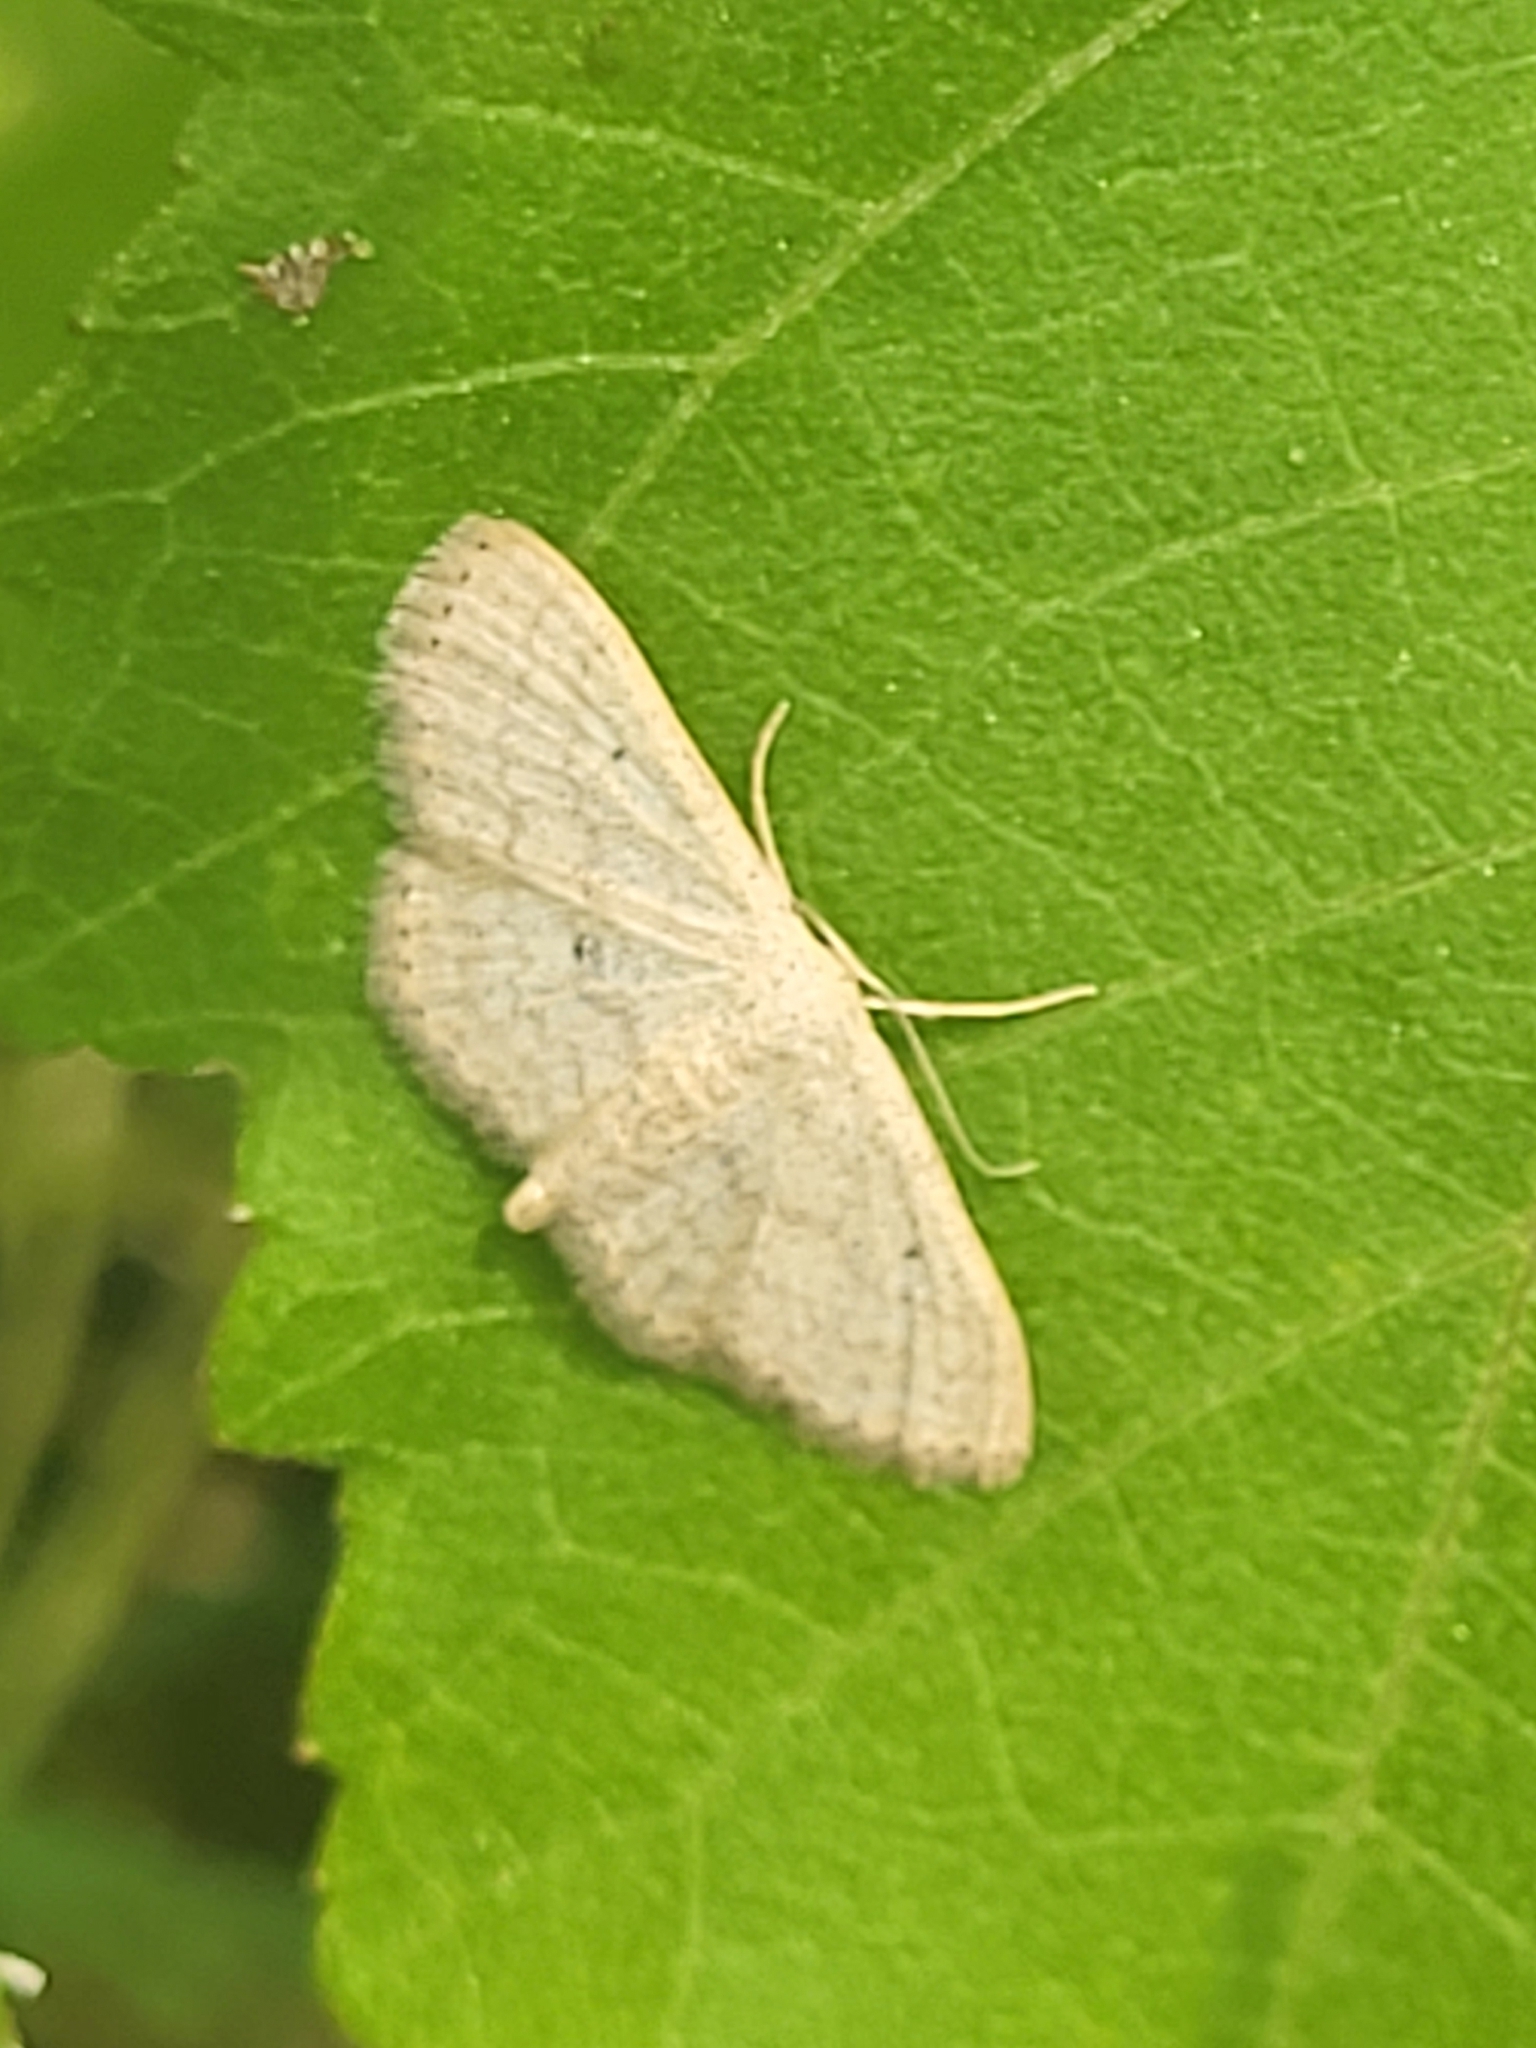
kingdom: Animalia
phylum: Arthropoda
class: Insecta
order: Lepidoptera
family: Geometridae
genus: Scopula
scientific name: Scopula minorata
